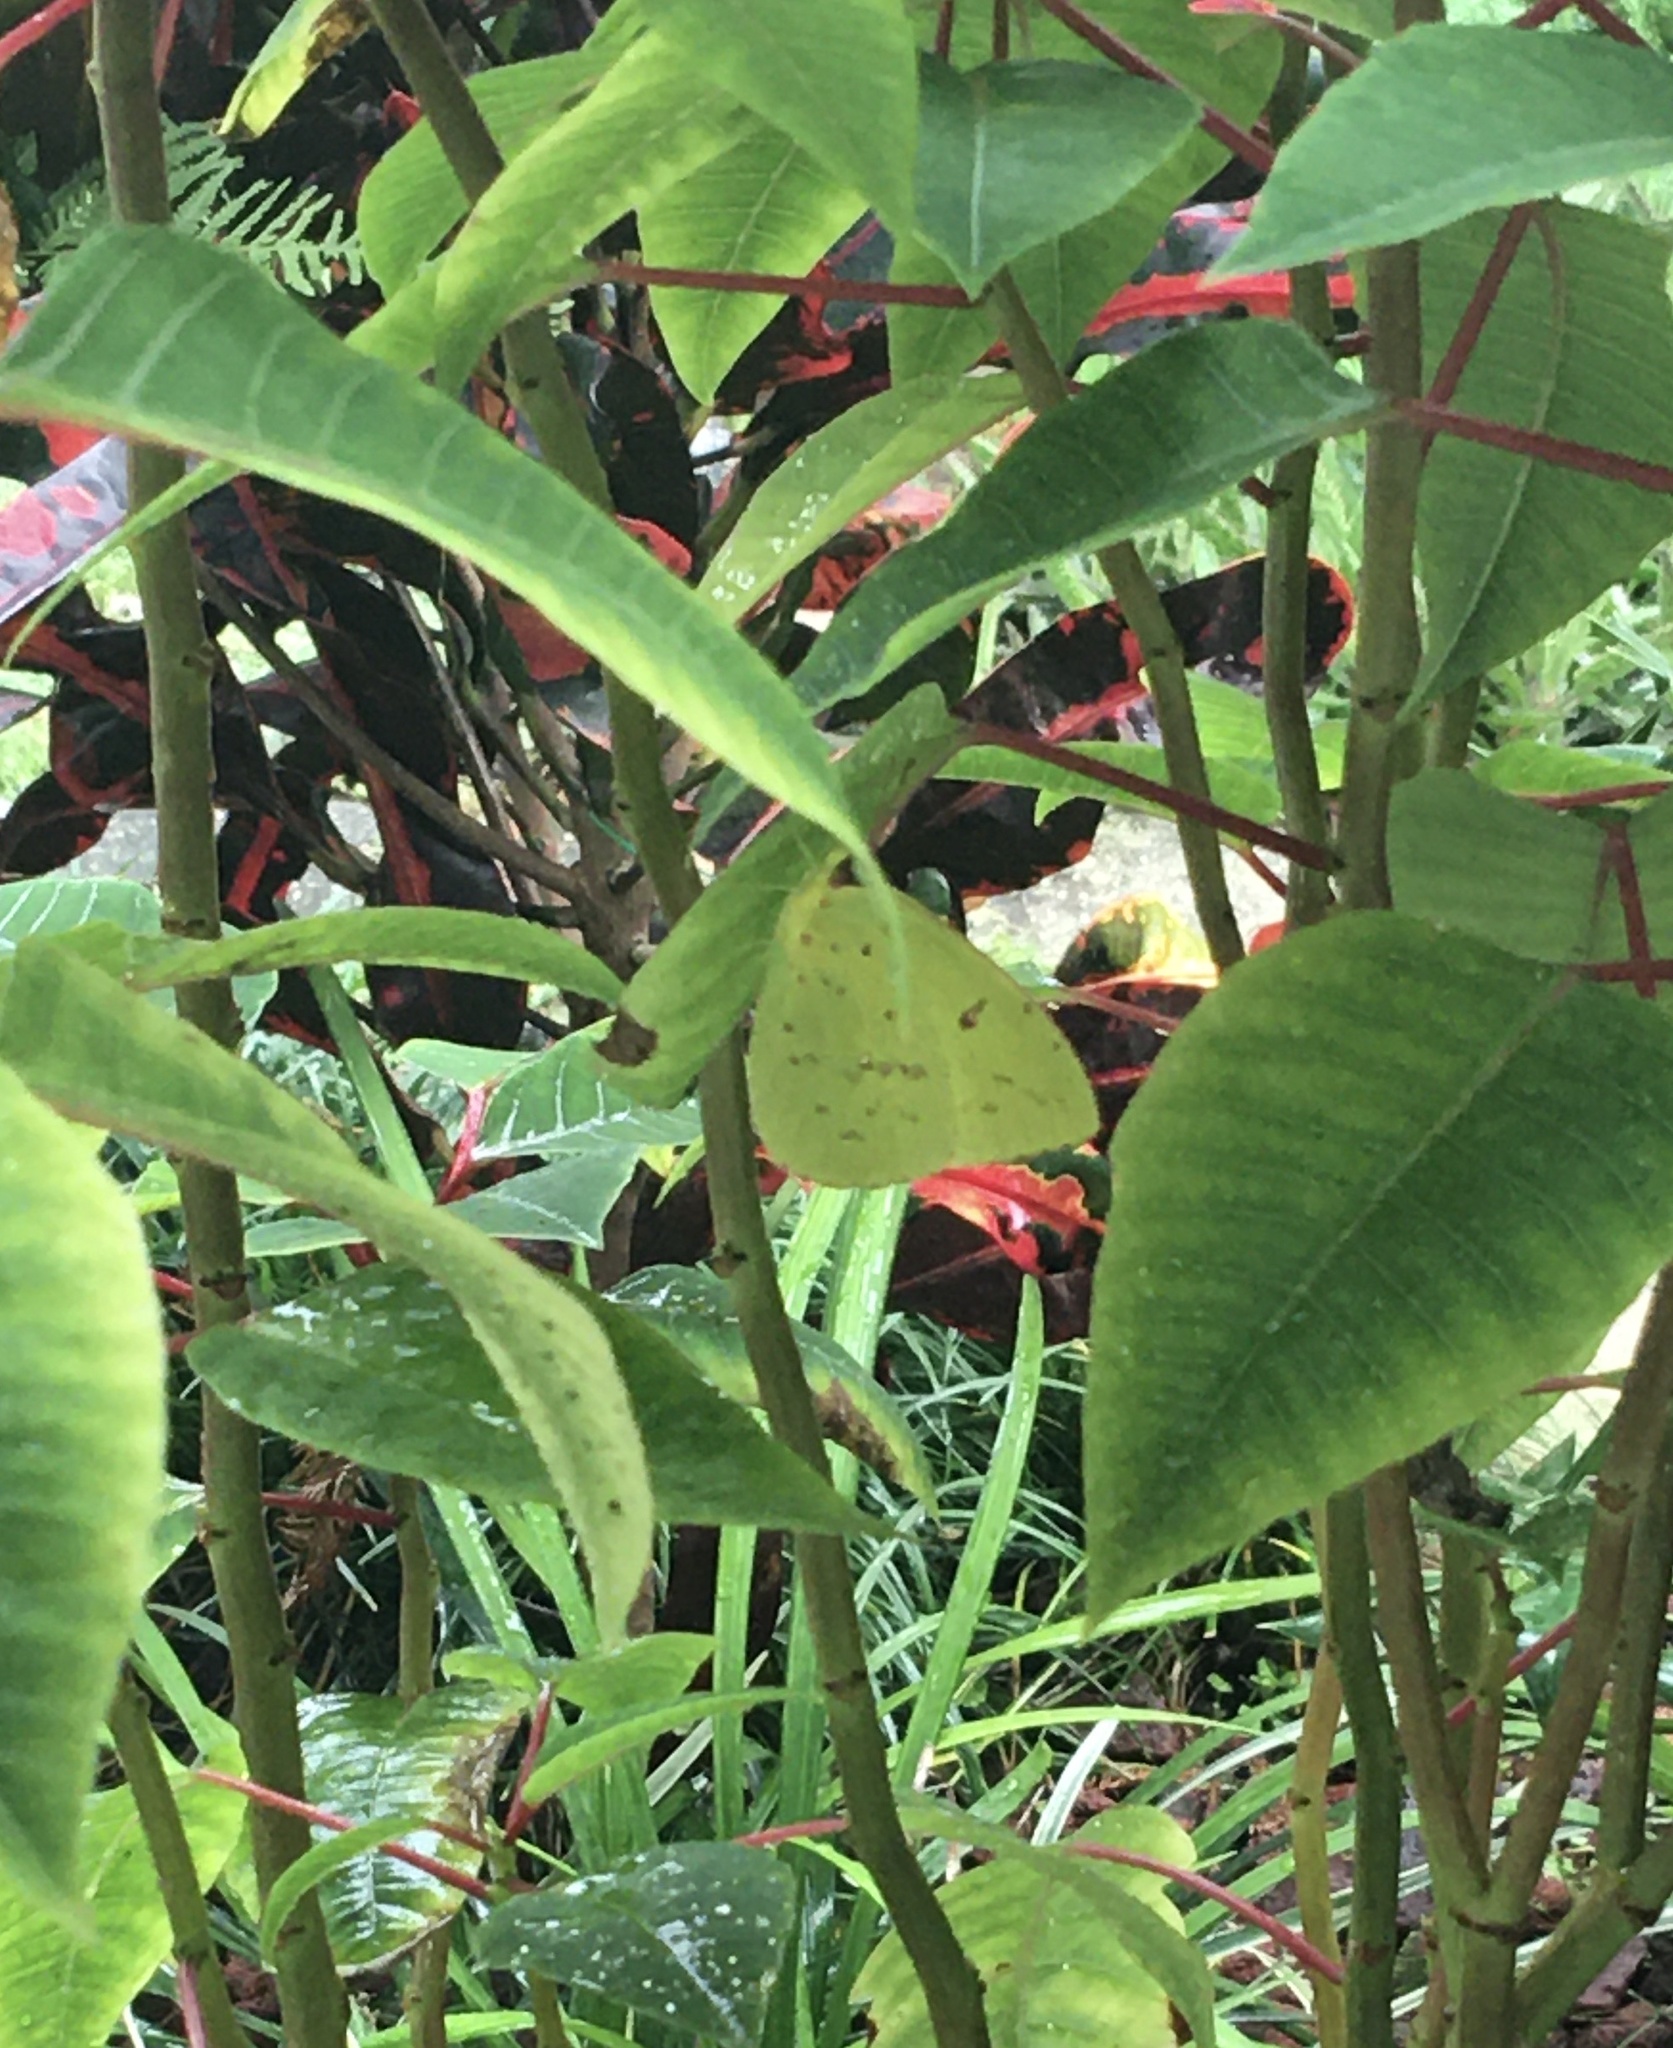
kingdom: Animalia
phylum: Arthropoda
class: Insecta
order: Lepidoptera
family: Pieridae
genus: Phoebis
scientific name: Phoebis sennae
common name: Cloudless sulphur
